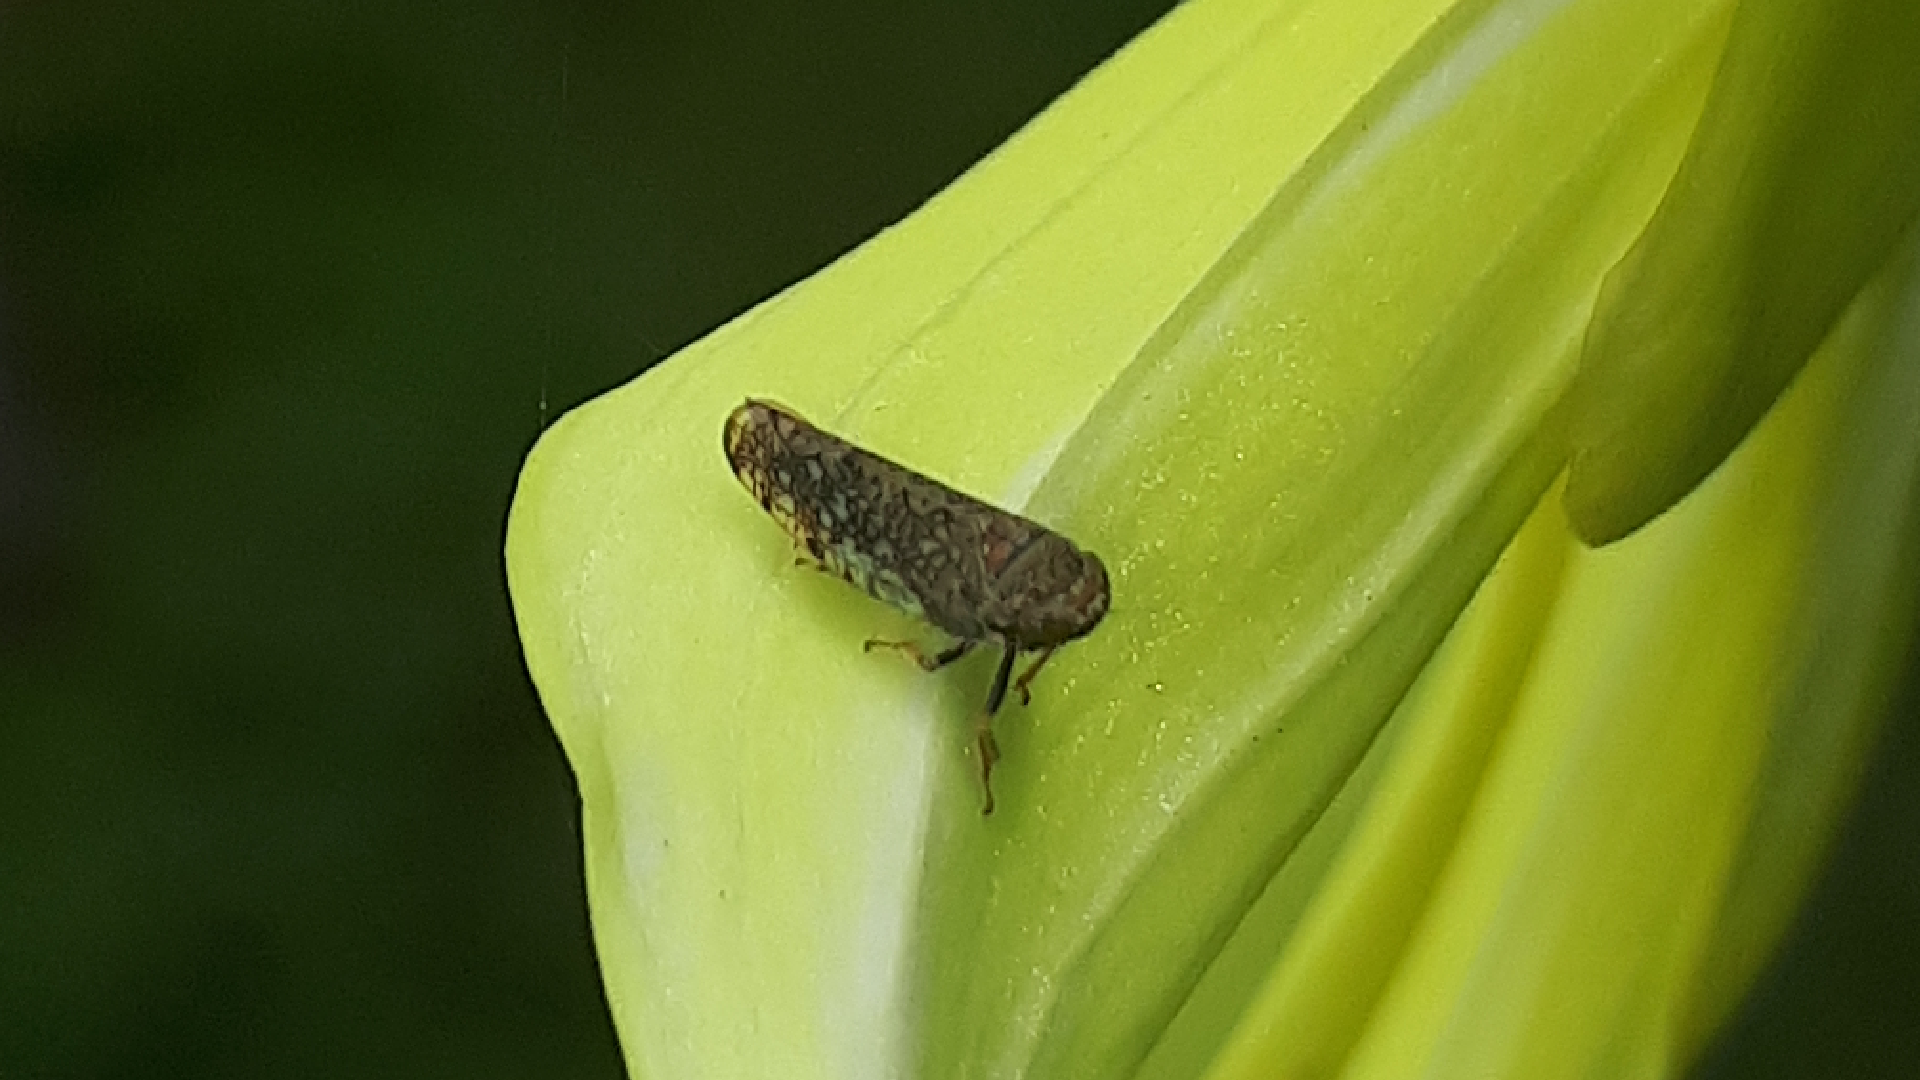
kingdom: Animalia
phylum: Arthropoda
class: Insecta
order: Hemiptera
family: Cicadellidae
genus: Orientus
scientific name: Orientus ishidae
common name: Japanese leafhopper
